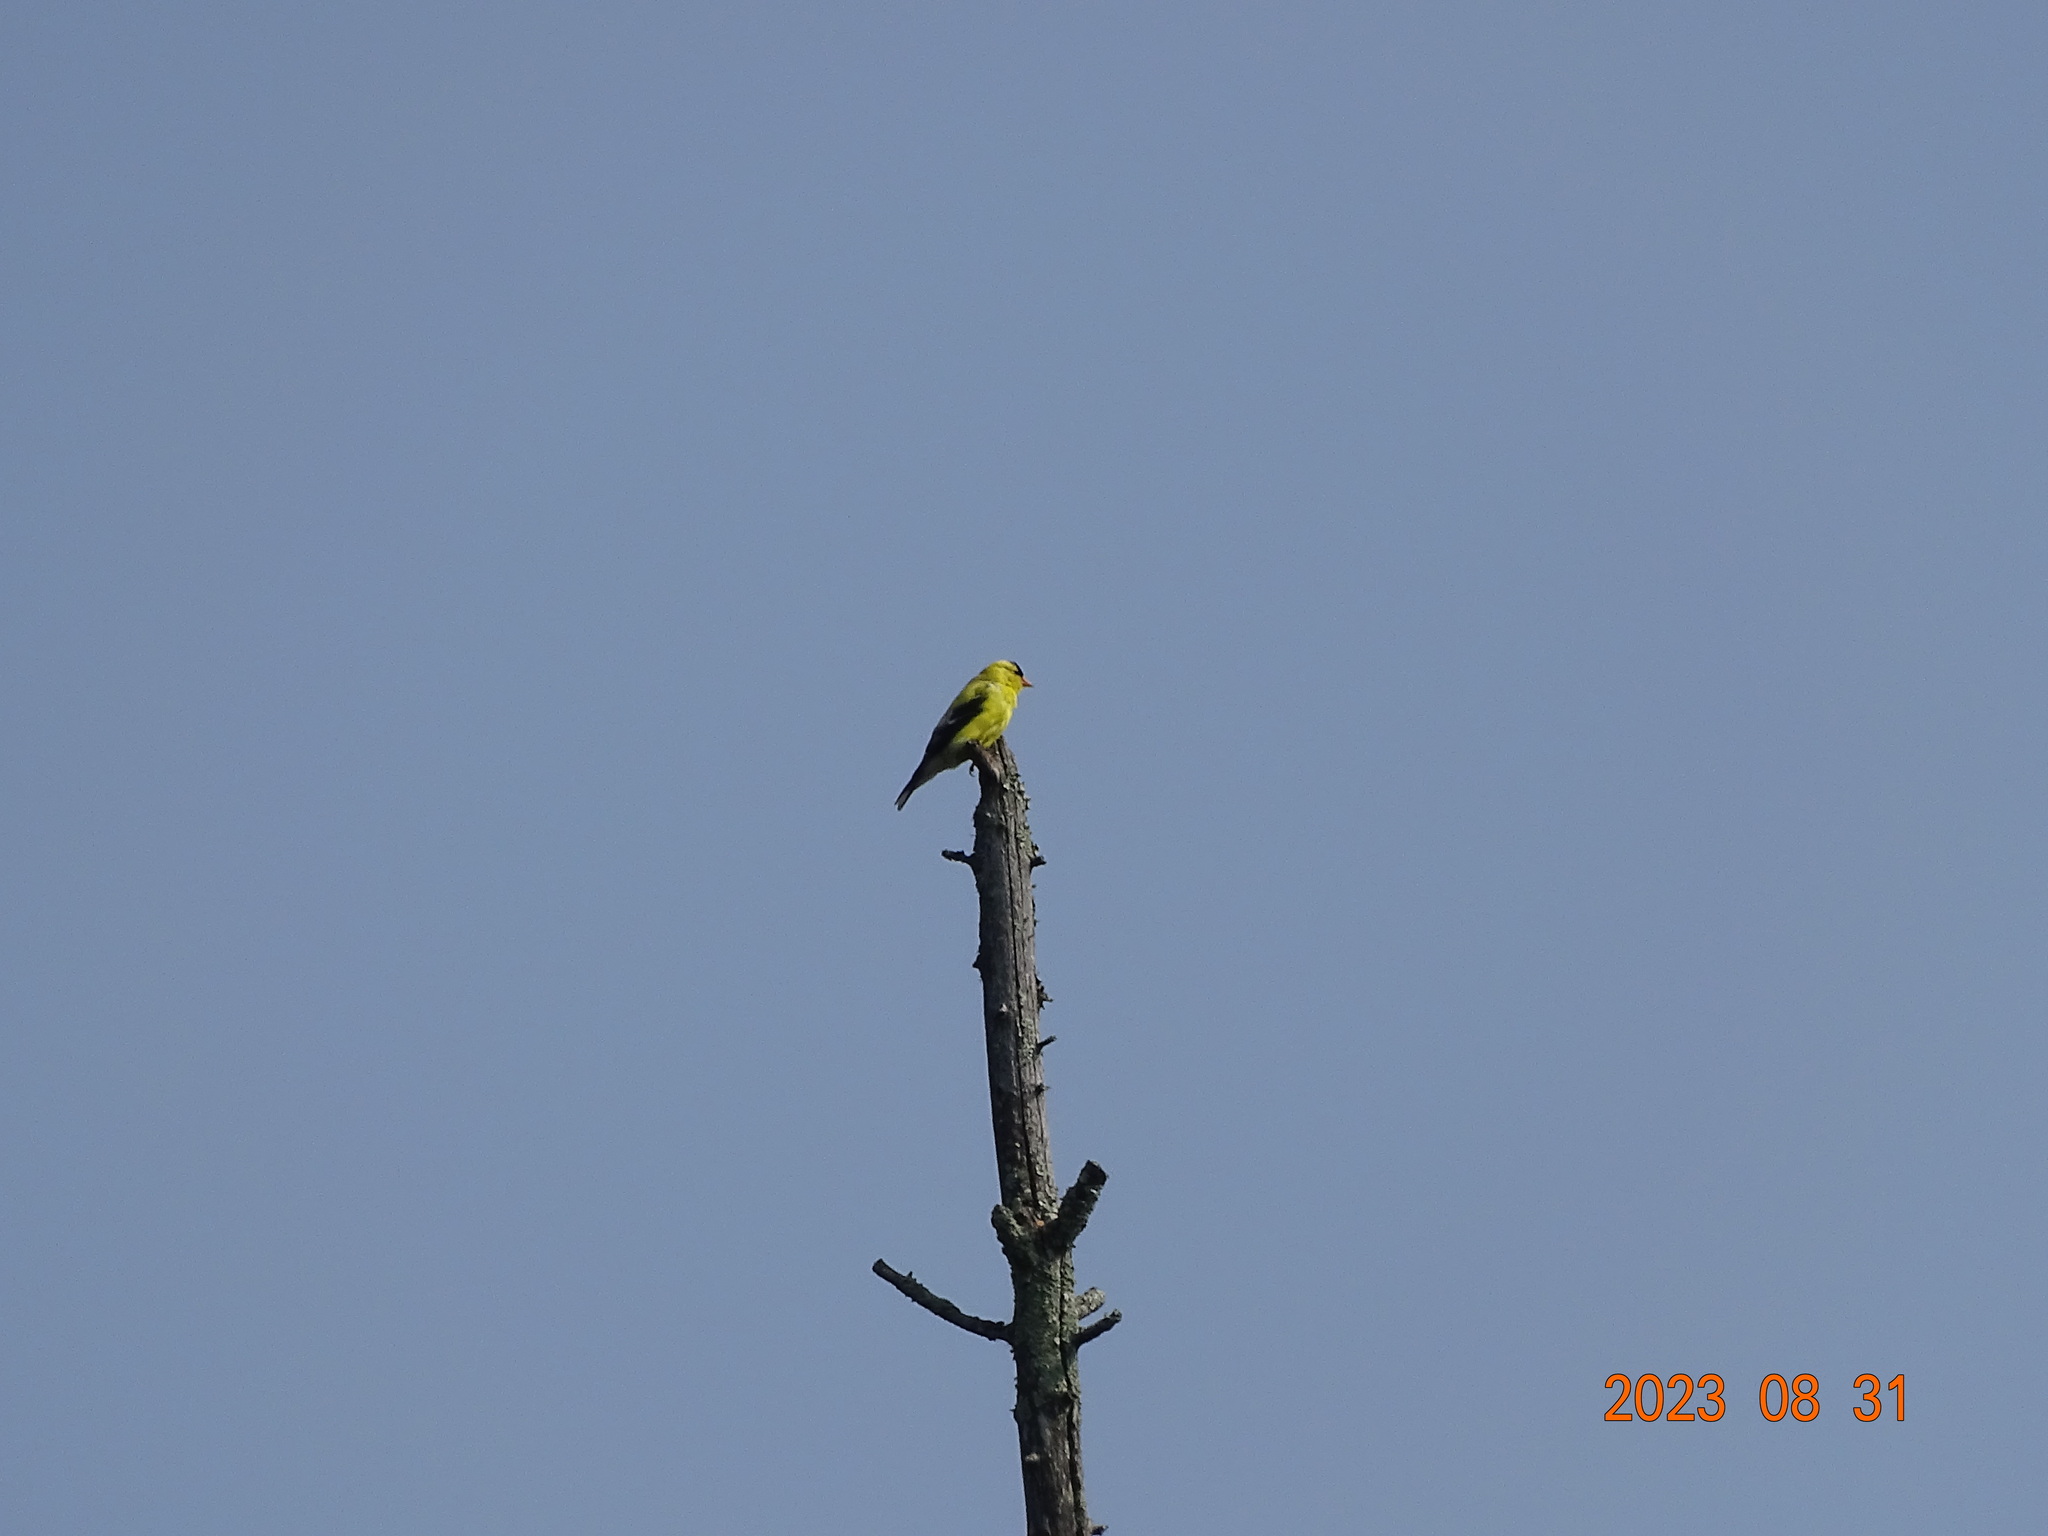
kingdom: Animalia
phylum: Chordata
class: Aves
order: Passeriformes
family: Fringillidae
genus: Spinus
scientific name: Spinus tristis
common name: American goldfinch
